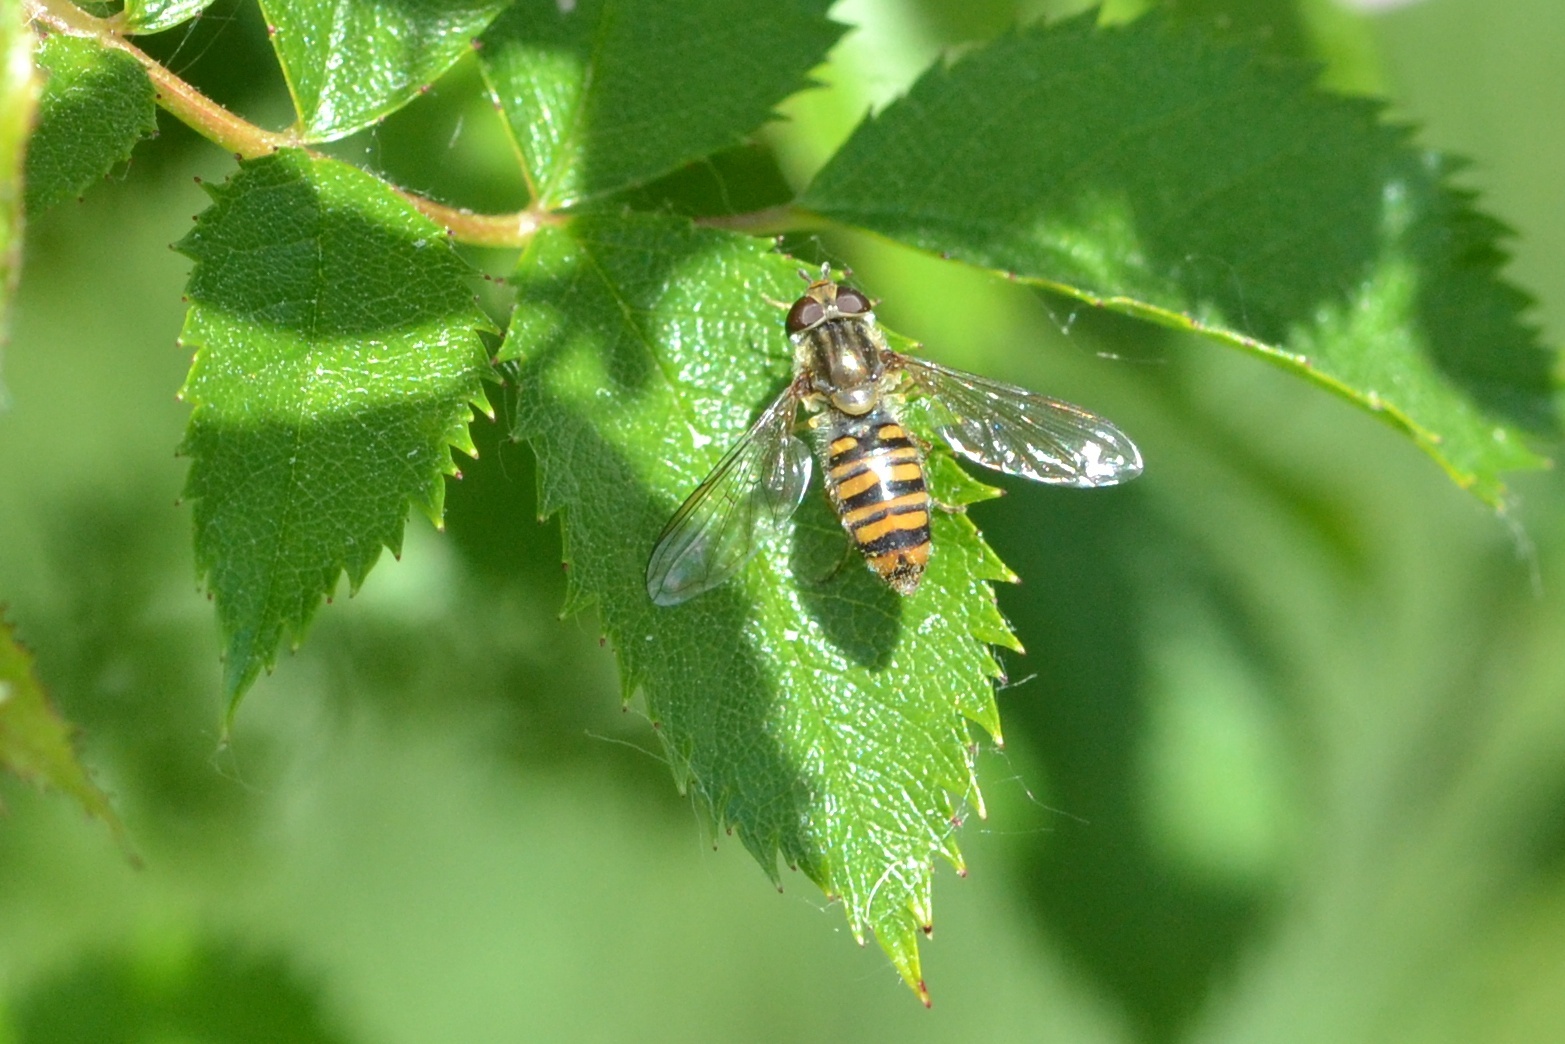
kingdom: Animalia
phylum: Arthropoda
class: Insecta
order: Diptera
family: Syrphidae
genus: Episyrphus
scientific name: Episyrphus balteatus
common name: Marmalade hoverfly
